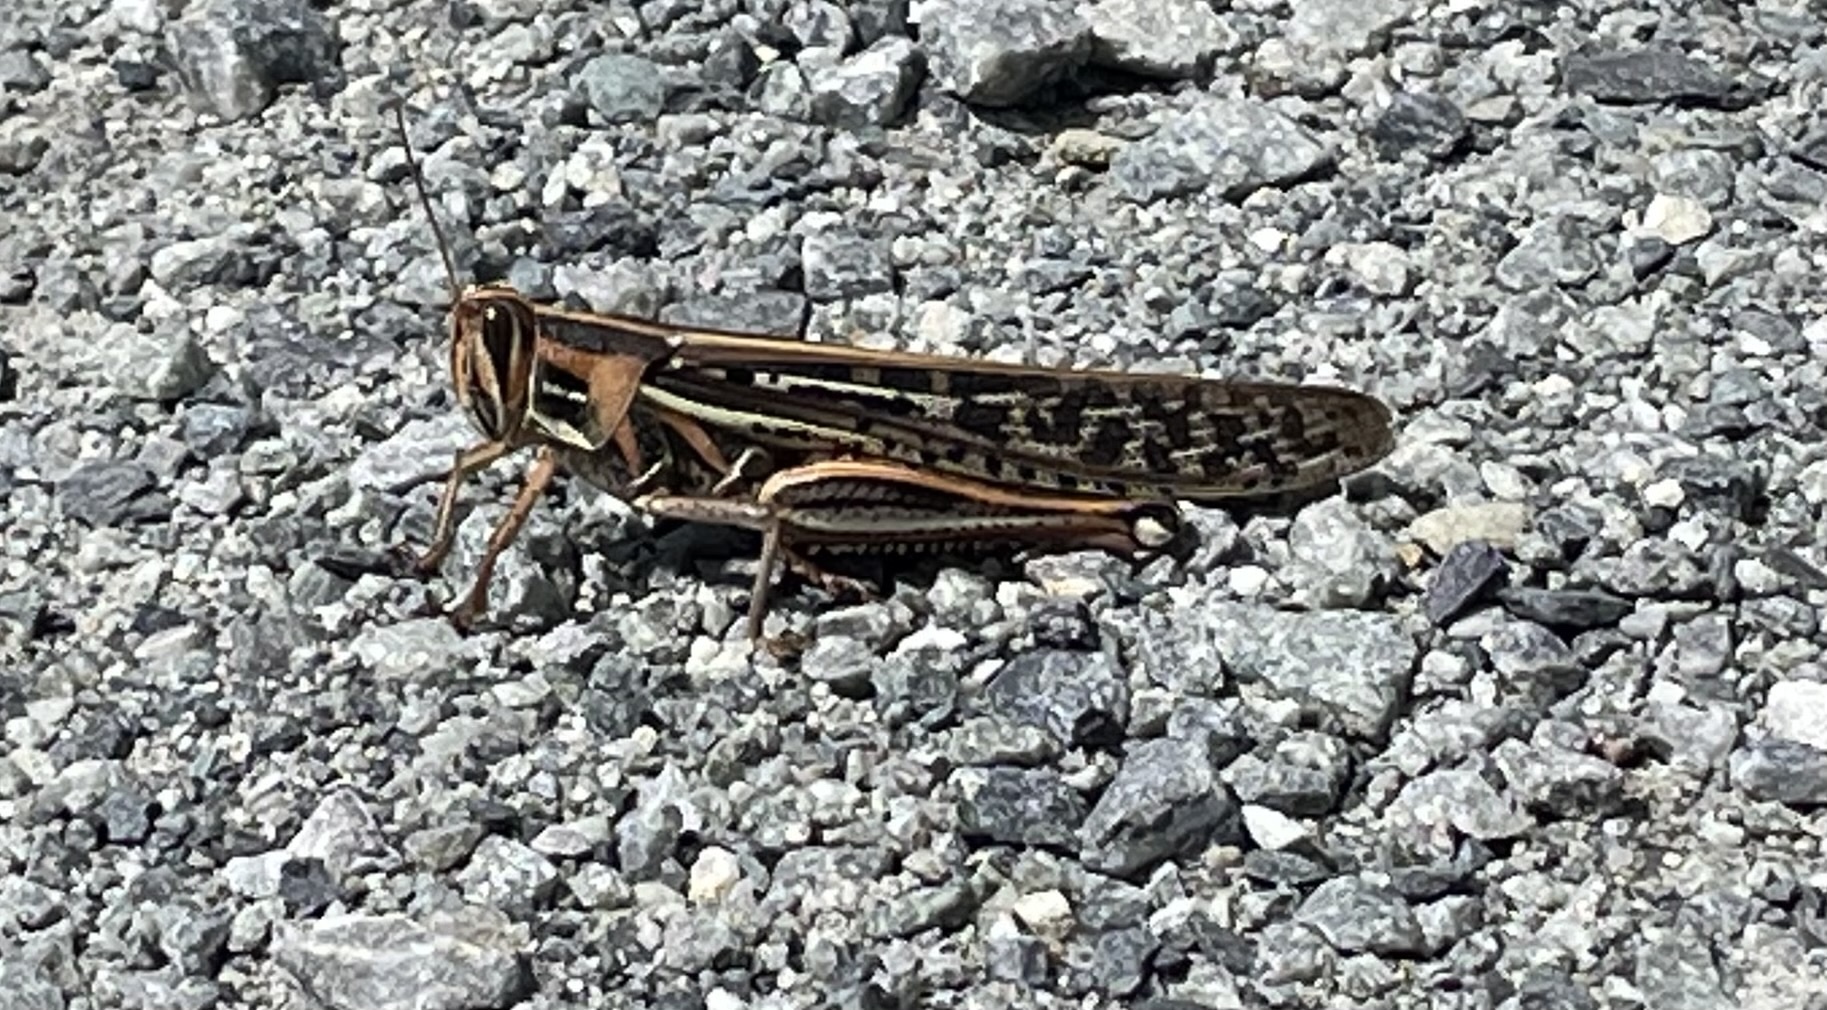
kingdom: Animalia
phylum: Arthropoda
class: Insecta
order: Orthoptera
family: Acrididae
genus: Schistocerca
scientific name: Schistocerca americana
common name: American bird locust
